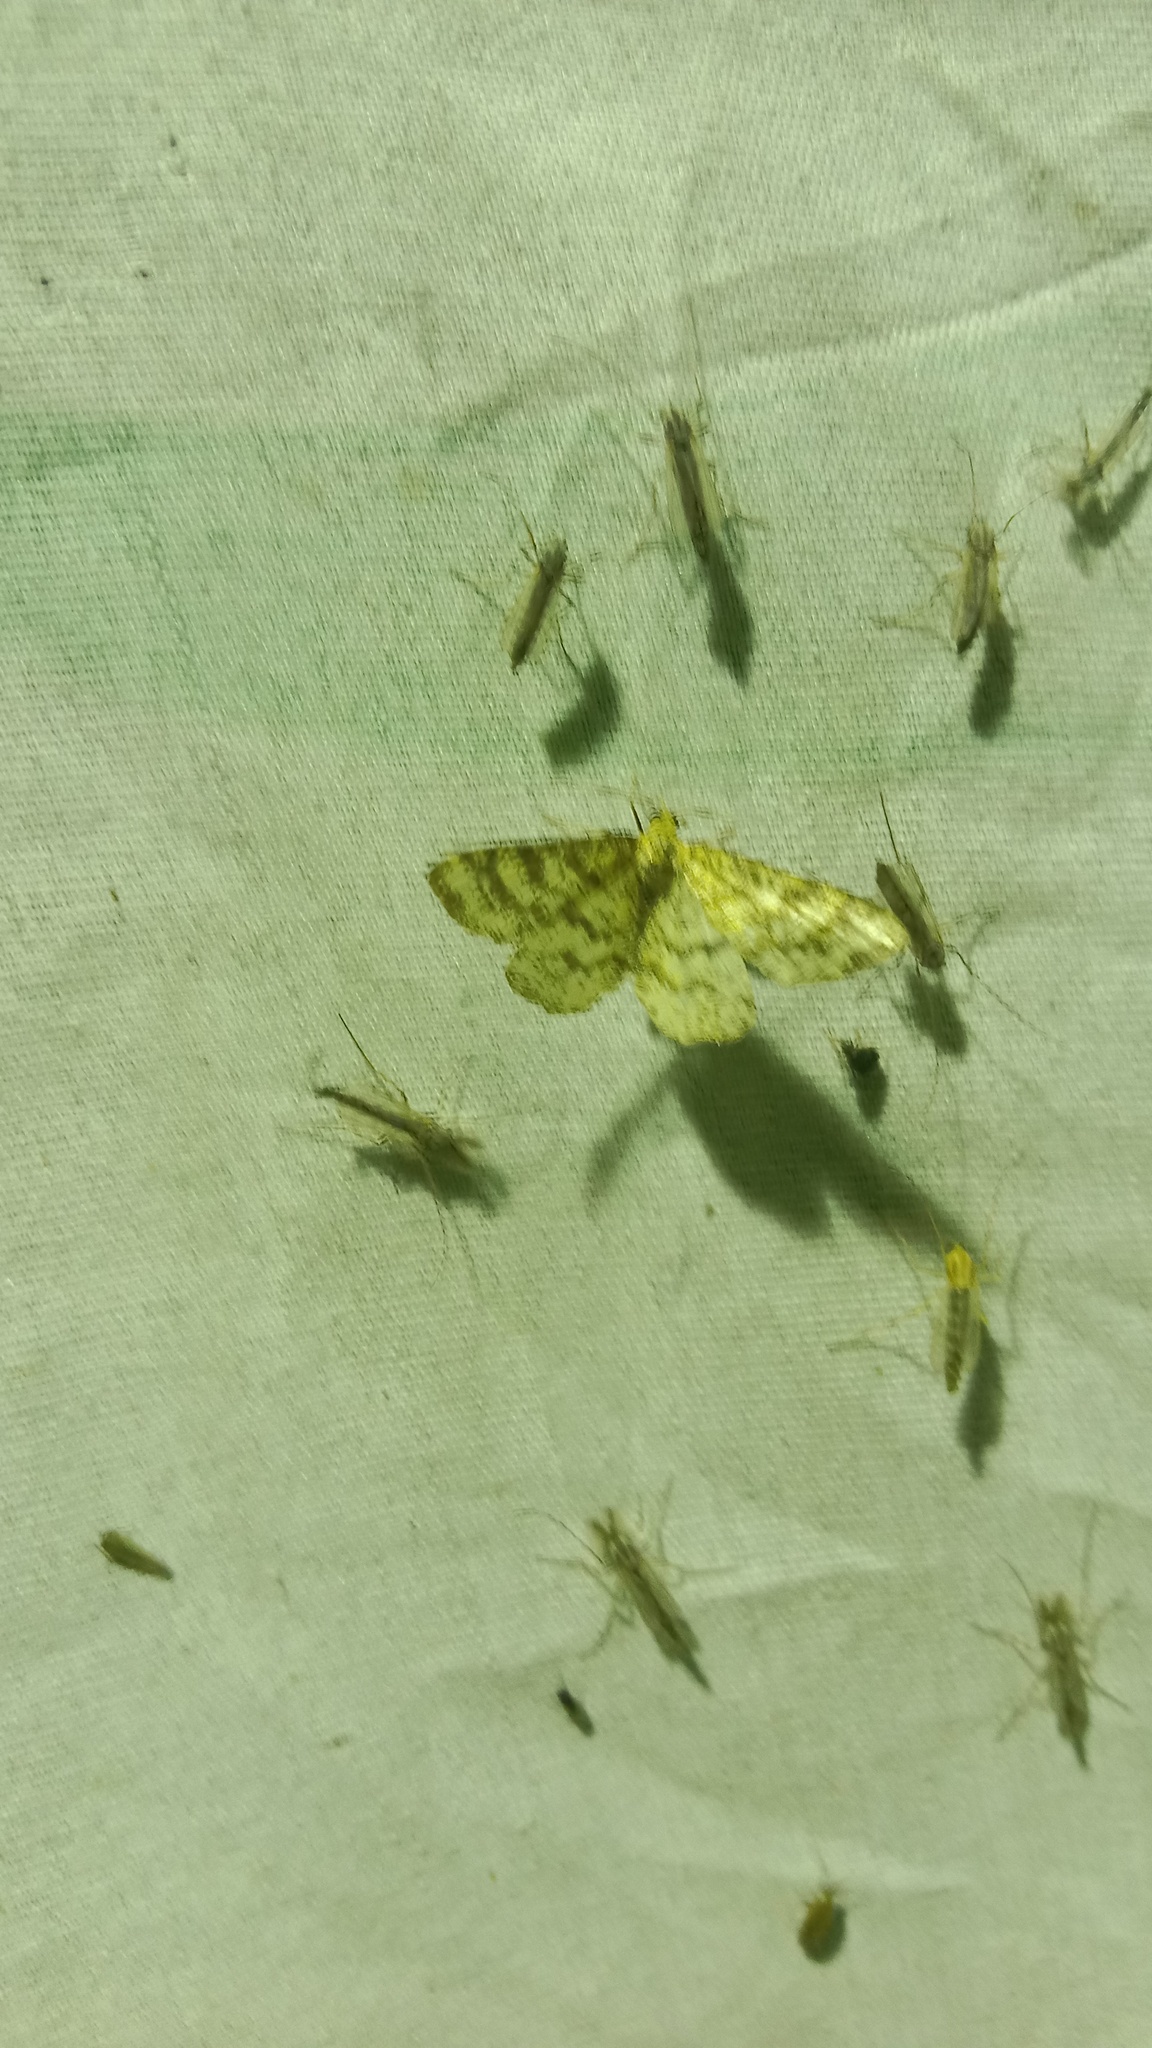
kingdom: Animalia
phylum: Arthropoda
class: Insecta
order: Lepidoptera
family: Geometridae
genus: Heliomata
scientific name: Heliomata glarearia
